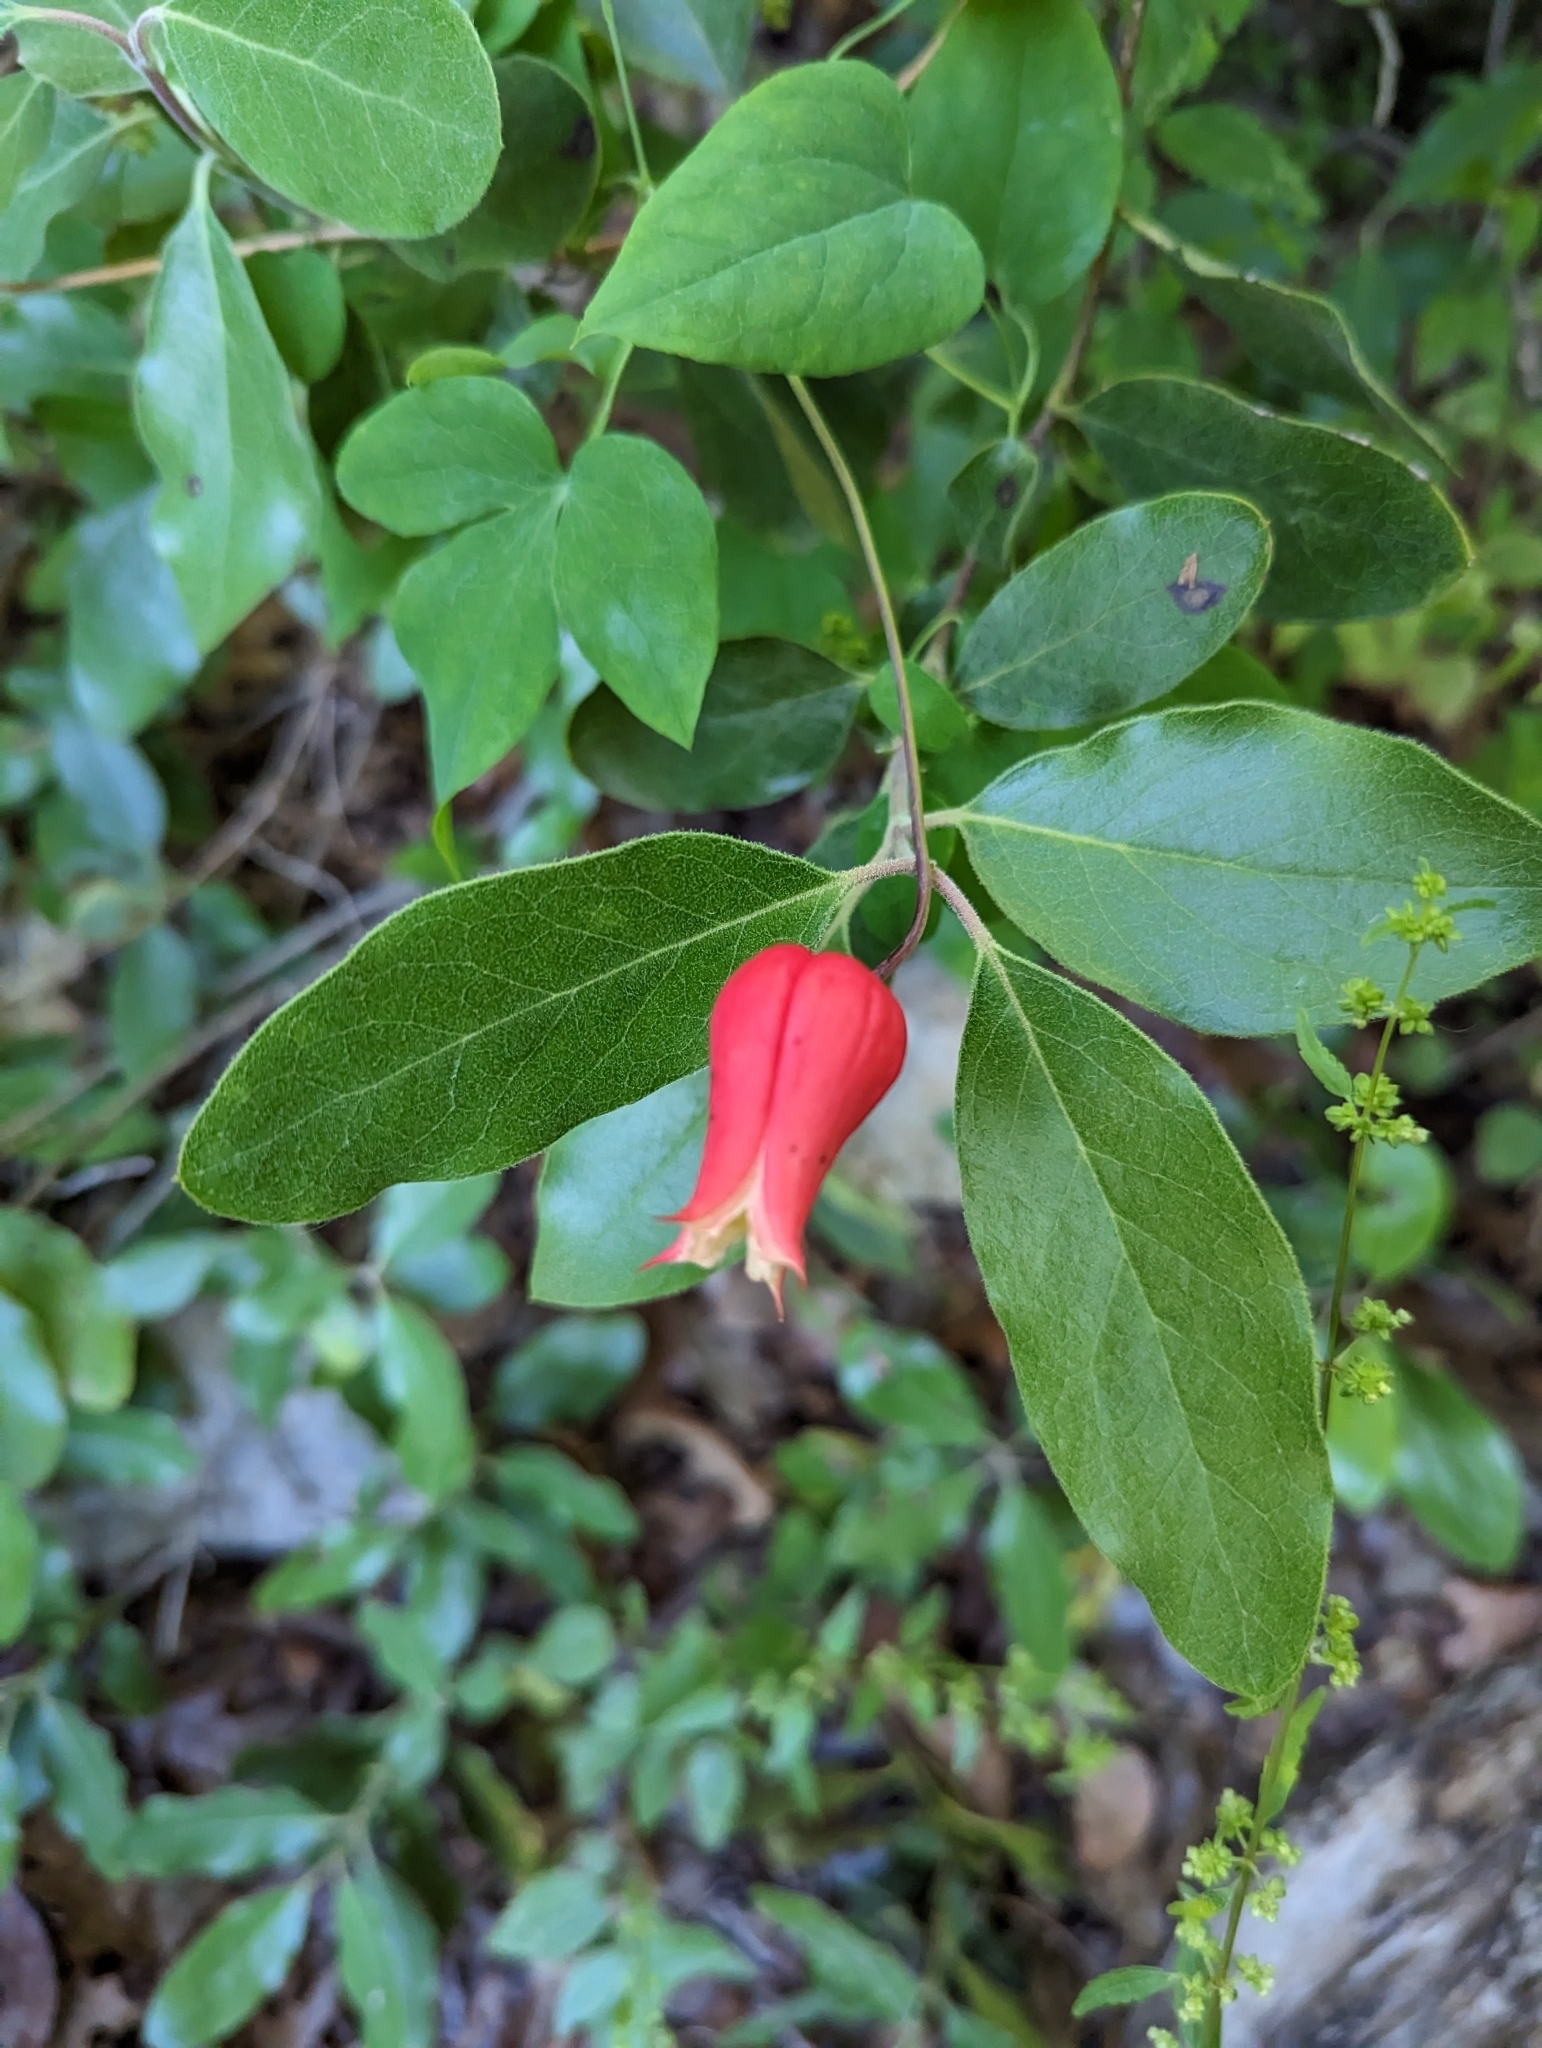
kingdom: Plantae
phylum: Tracheophyta
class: Magnoliopsida
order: Ranunculales
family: Ranunculaceae
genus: Clematis
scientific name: Clematis texensis
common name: Crimson clematis
